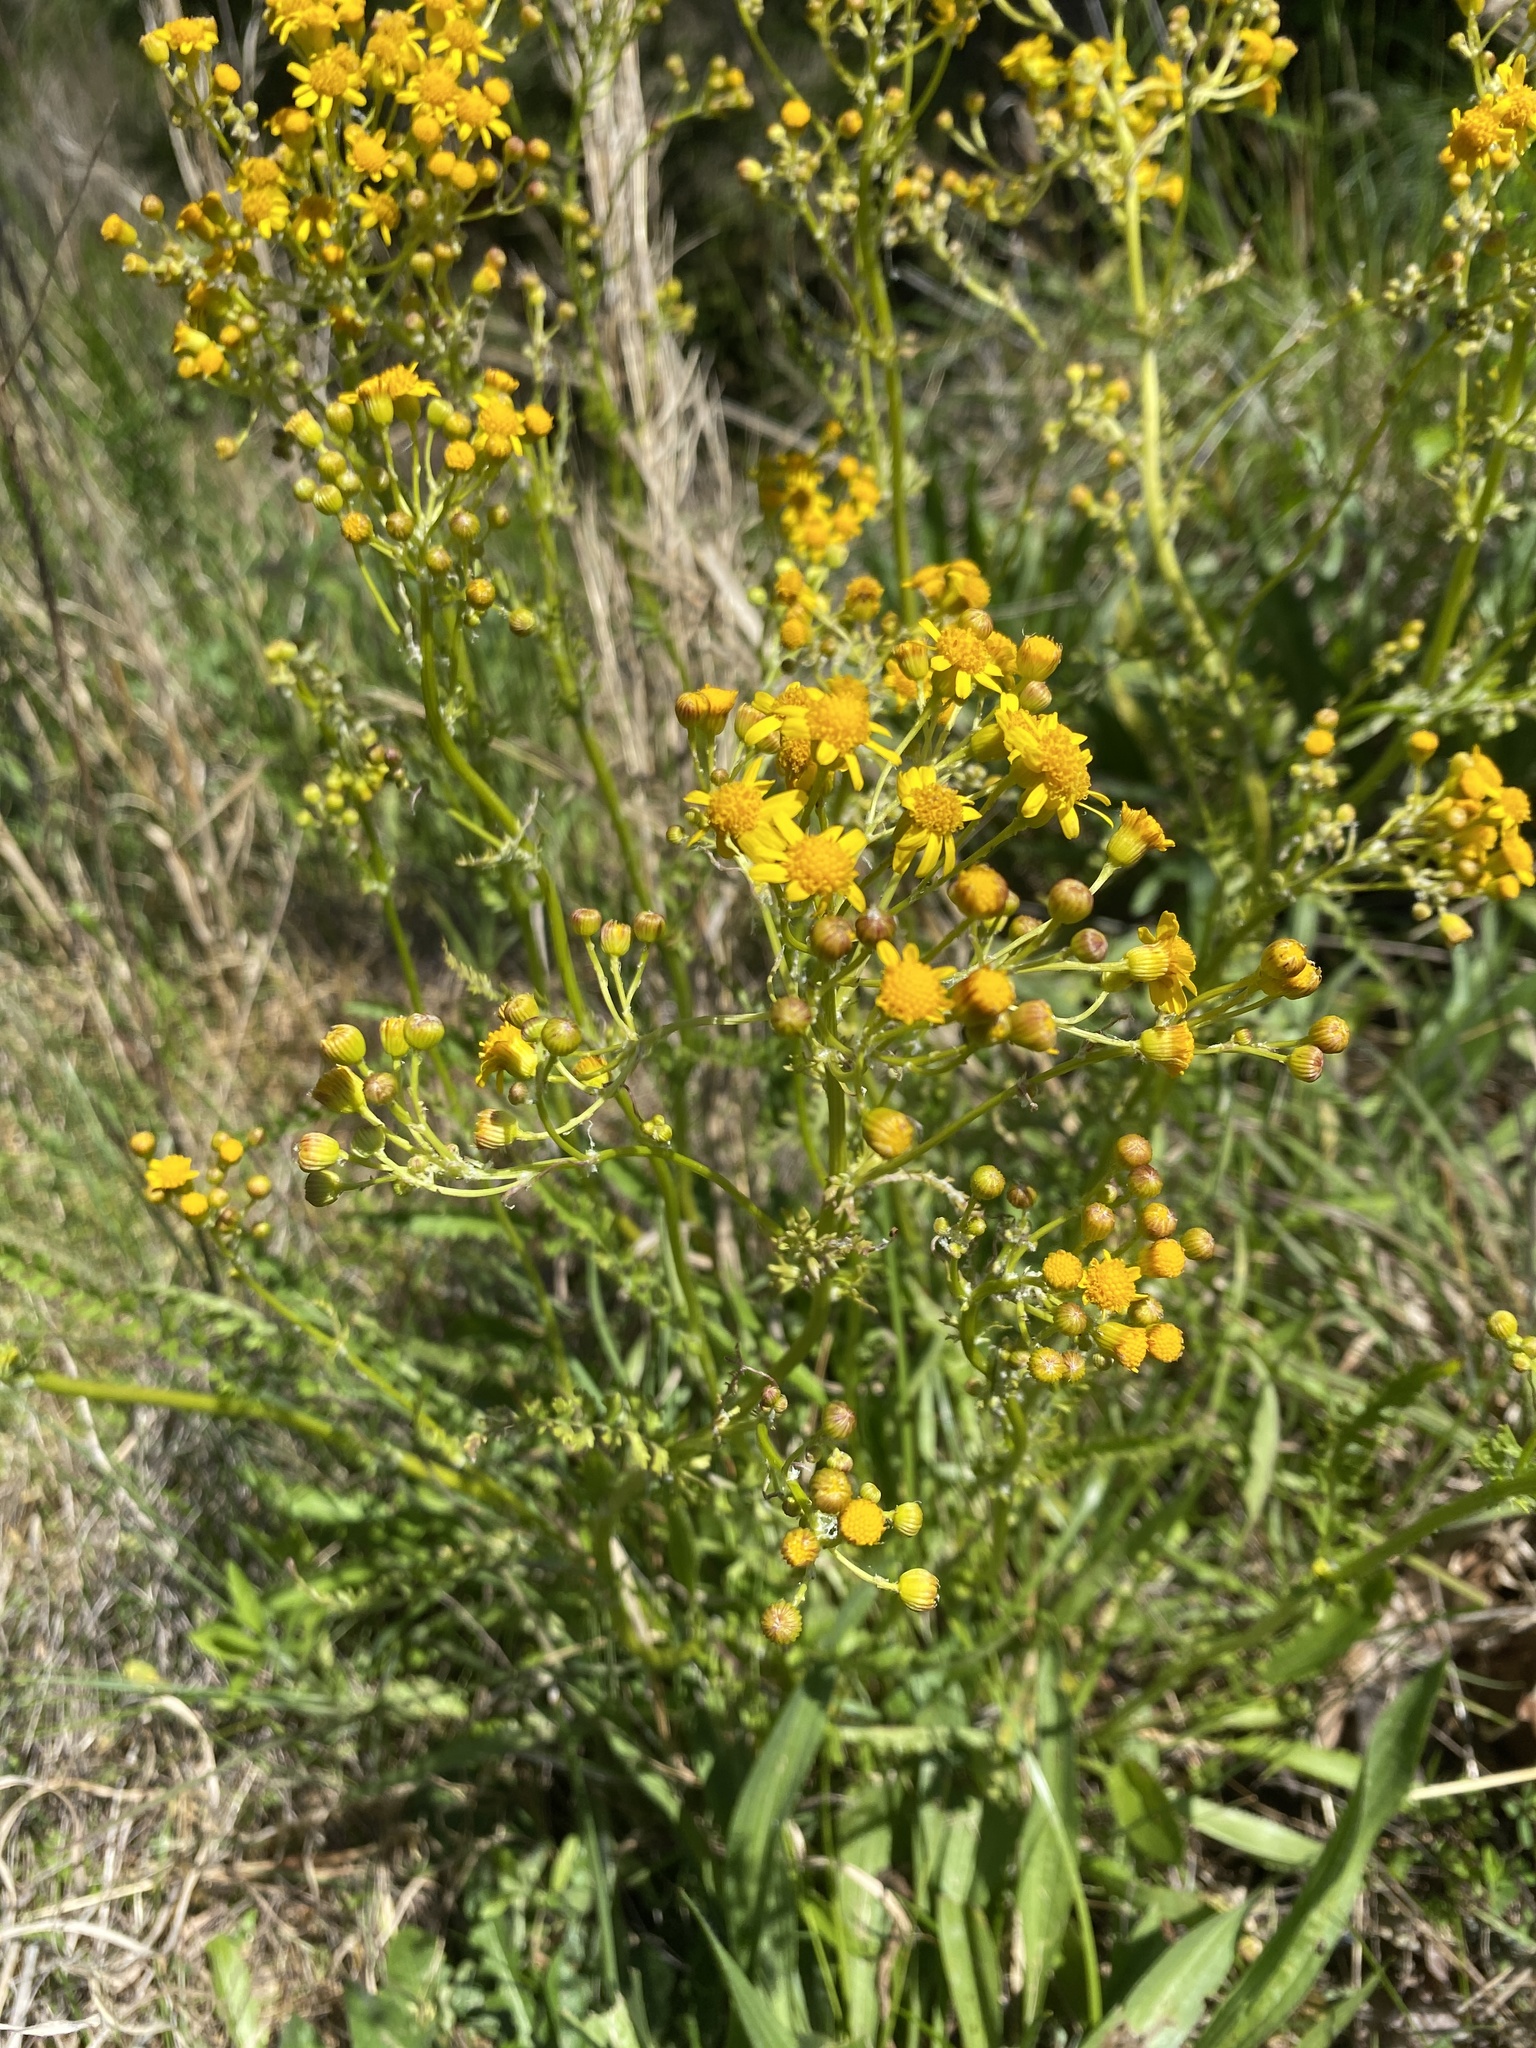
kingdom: Plantae
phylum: Tracheophyta
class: Magnoliopsida
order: Asterales
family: Asteraceae
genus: Packera
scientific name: Packera anonyma
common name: Small ragwort
